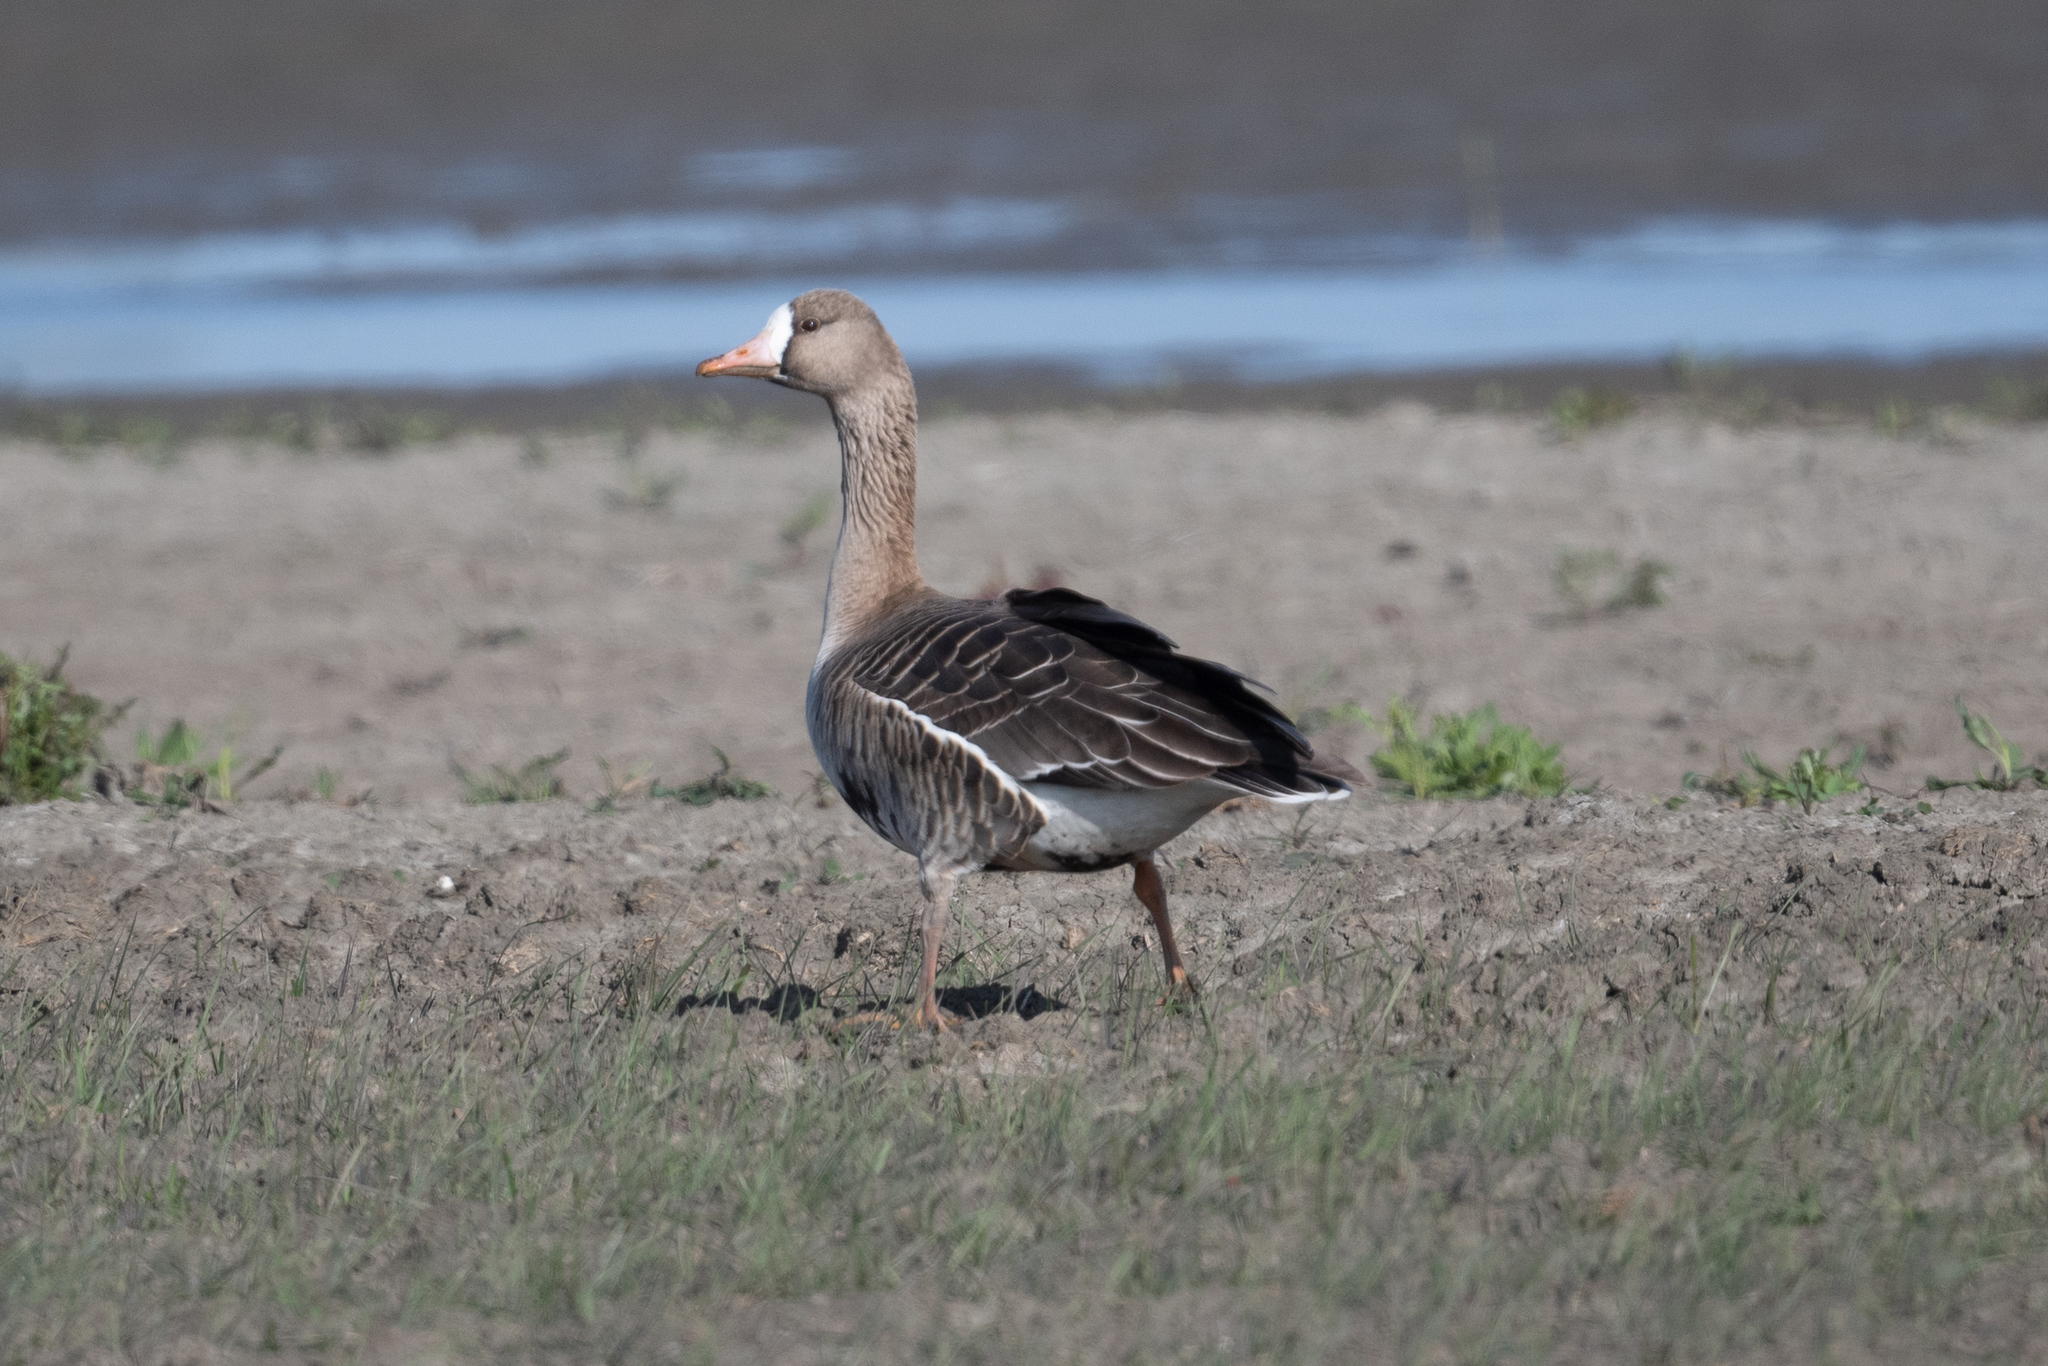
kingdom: Animalia
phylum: Chordata
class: Aves
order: Anseriformes
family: Anatidae
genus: Anser
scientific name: Anser albifrons
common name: Greater white-fronted goose
